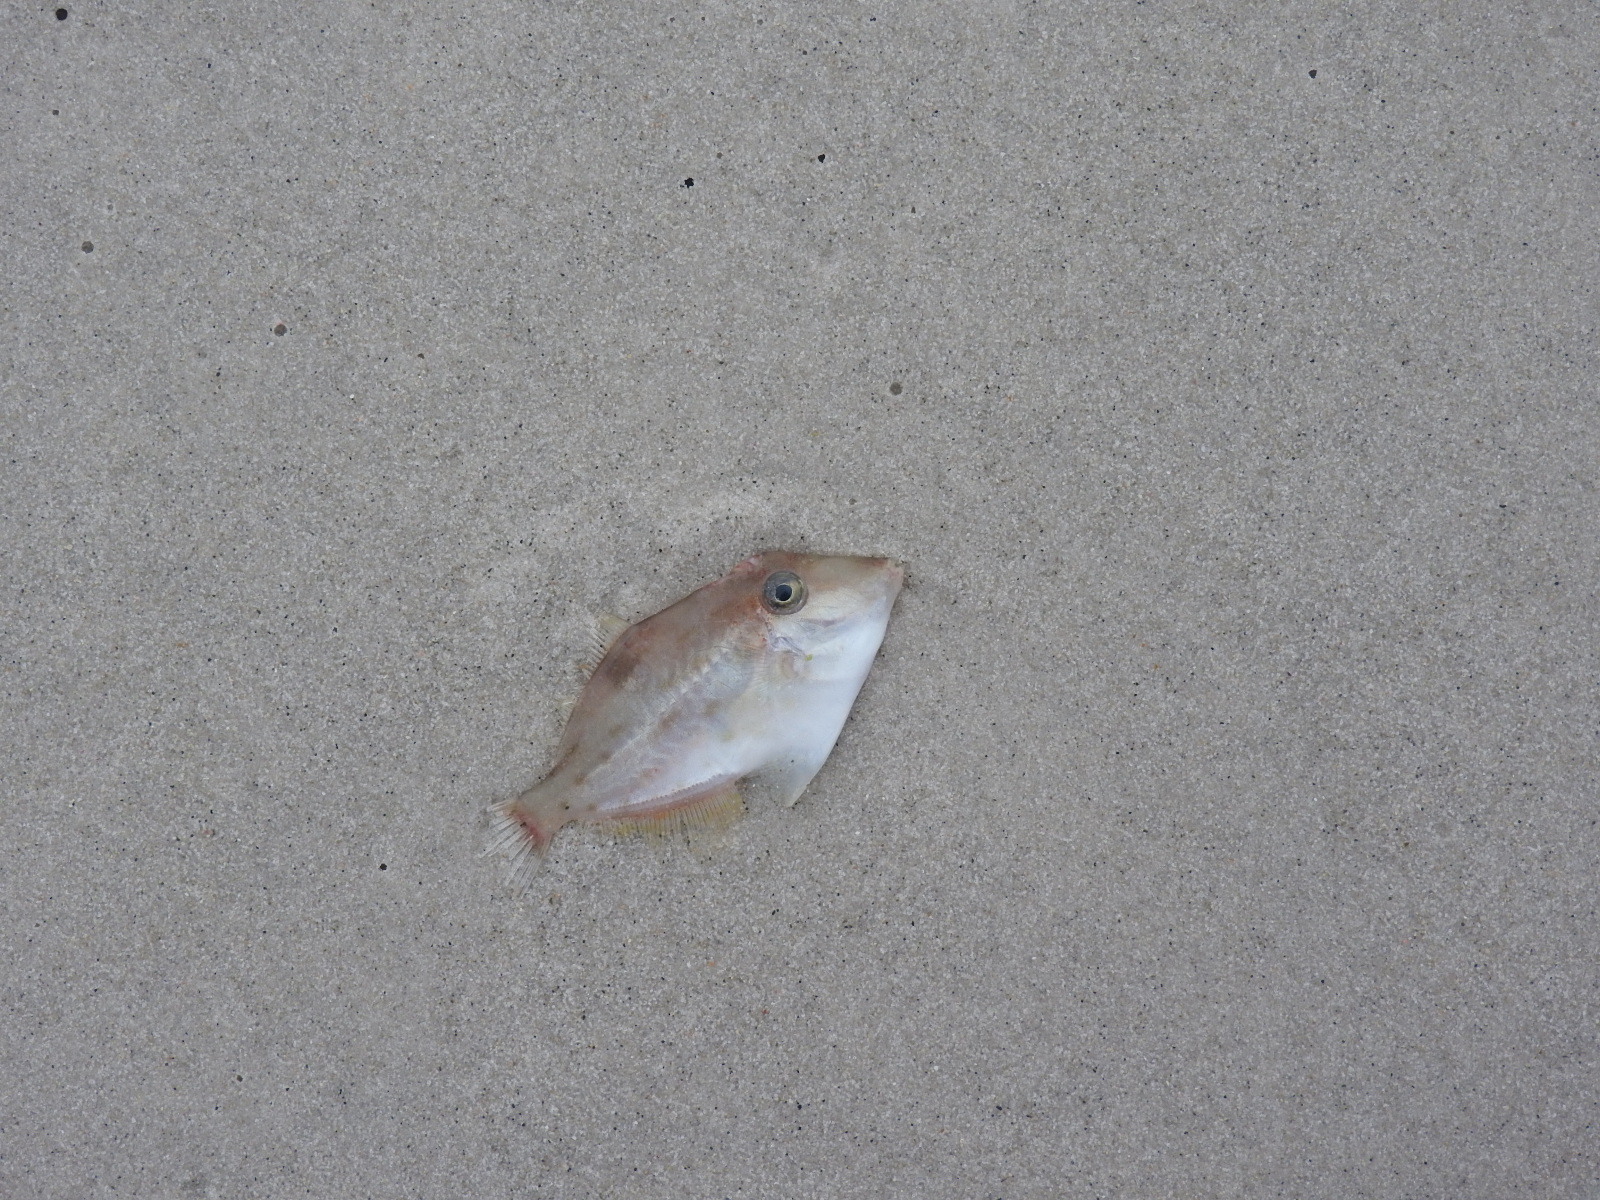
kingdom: Animalia
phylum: Chordata
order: Tetraodontiformes
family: Monacanthidae
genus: Arotrolepis
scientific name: Arotrolepis filicauda
